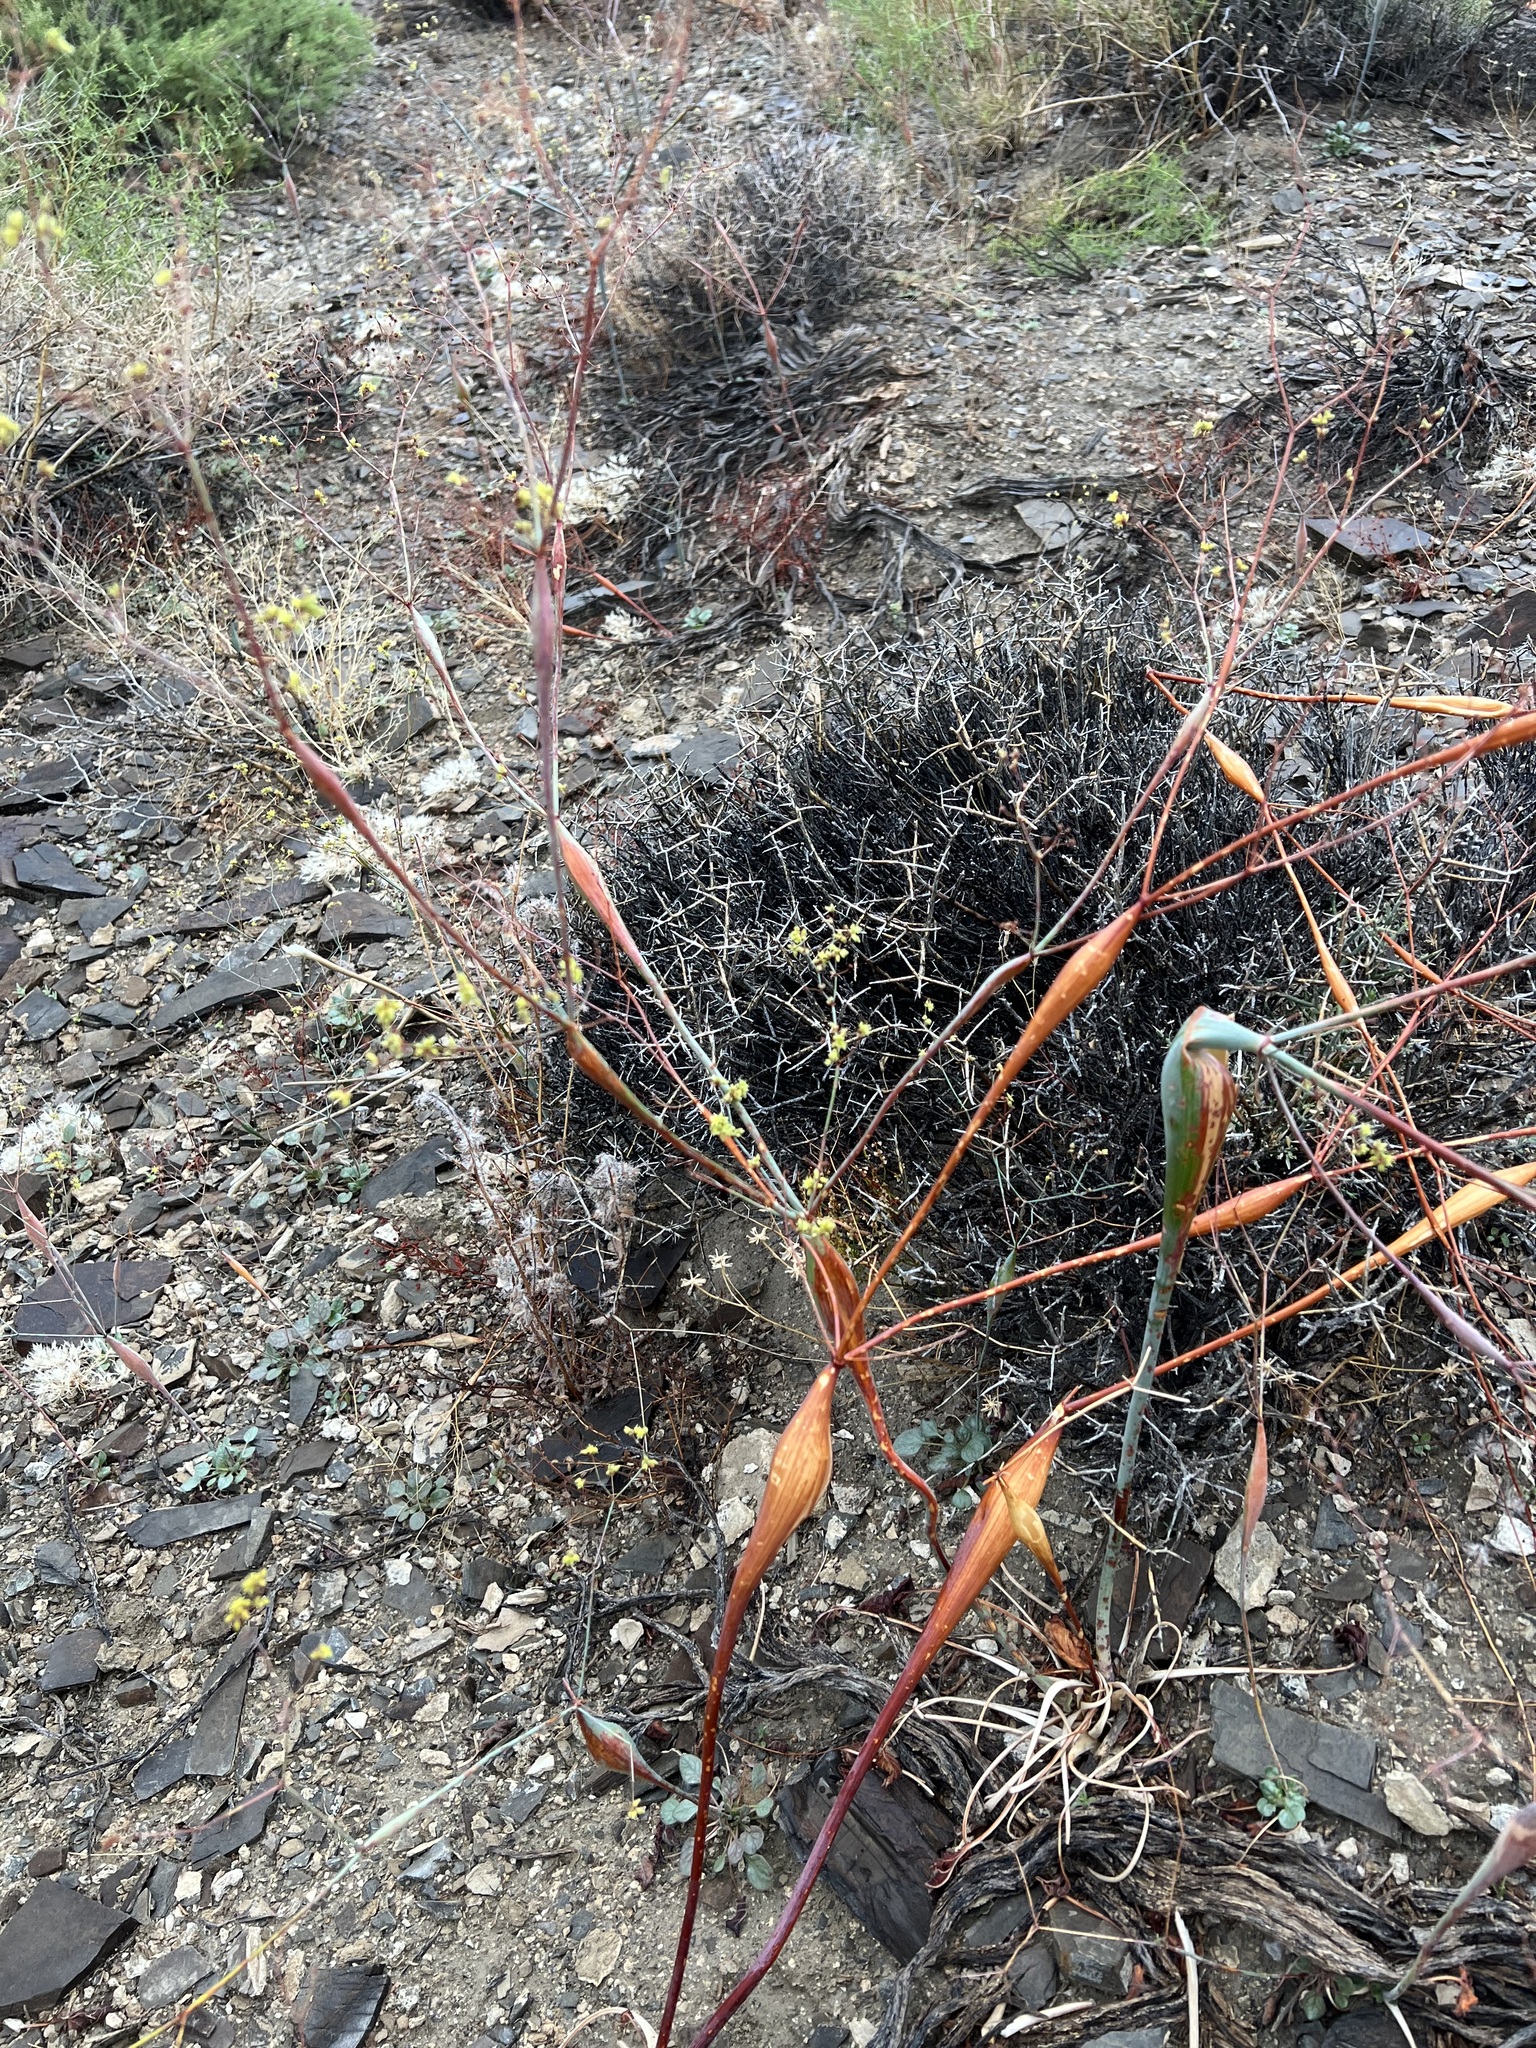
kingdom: Plantae
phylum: Tracheophyta
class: Magnoliopsida
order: Caryophyllales
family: Polygonaceae
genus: Eriogonum
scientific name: Eriogonum inflatum
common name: Desert trumpet
